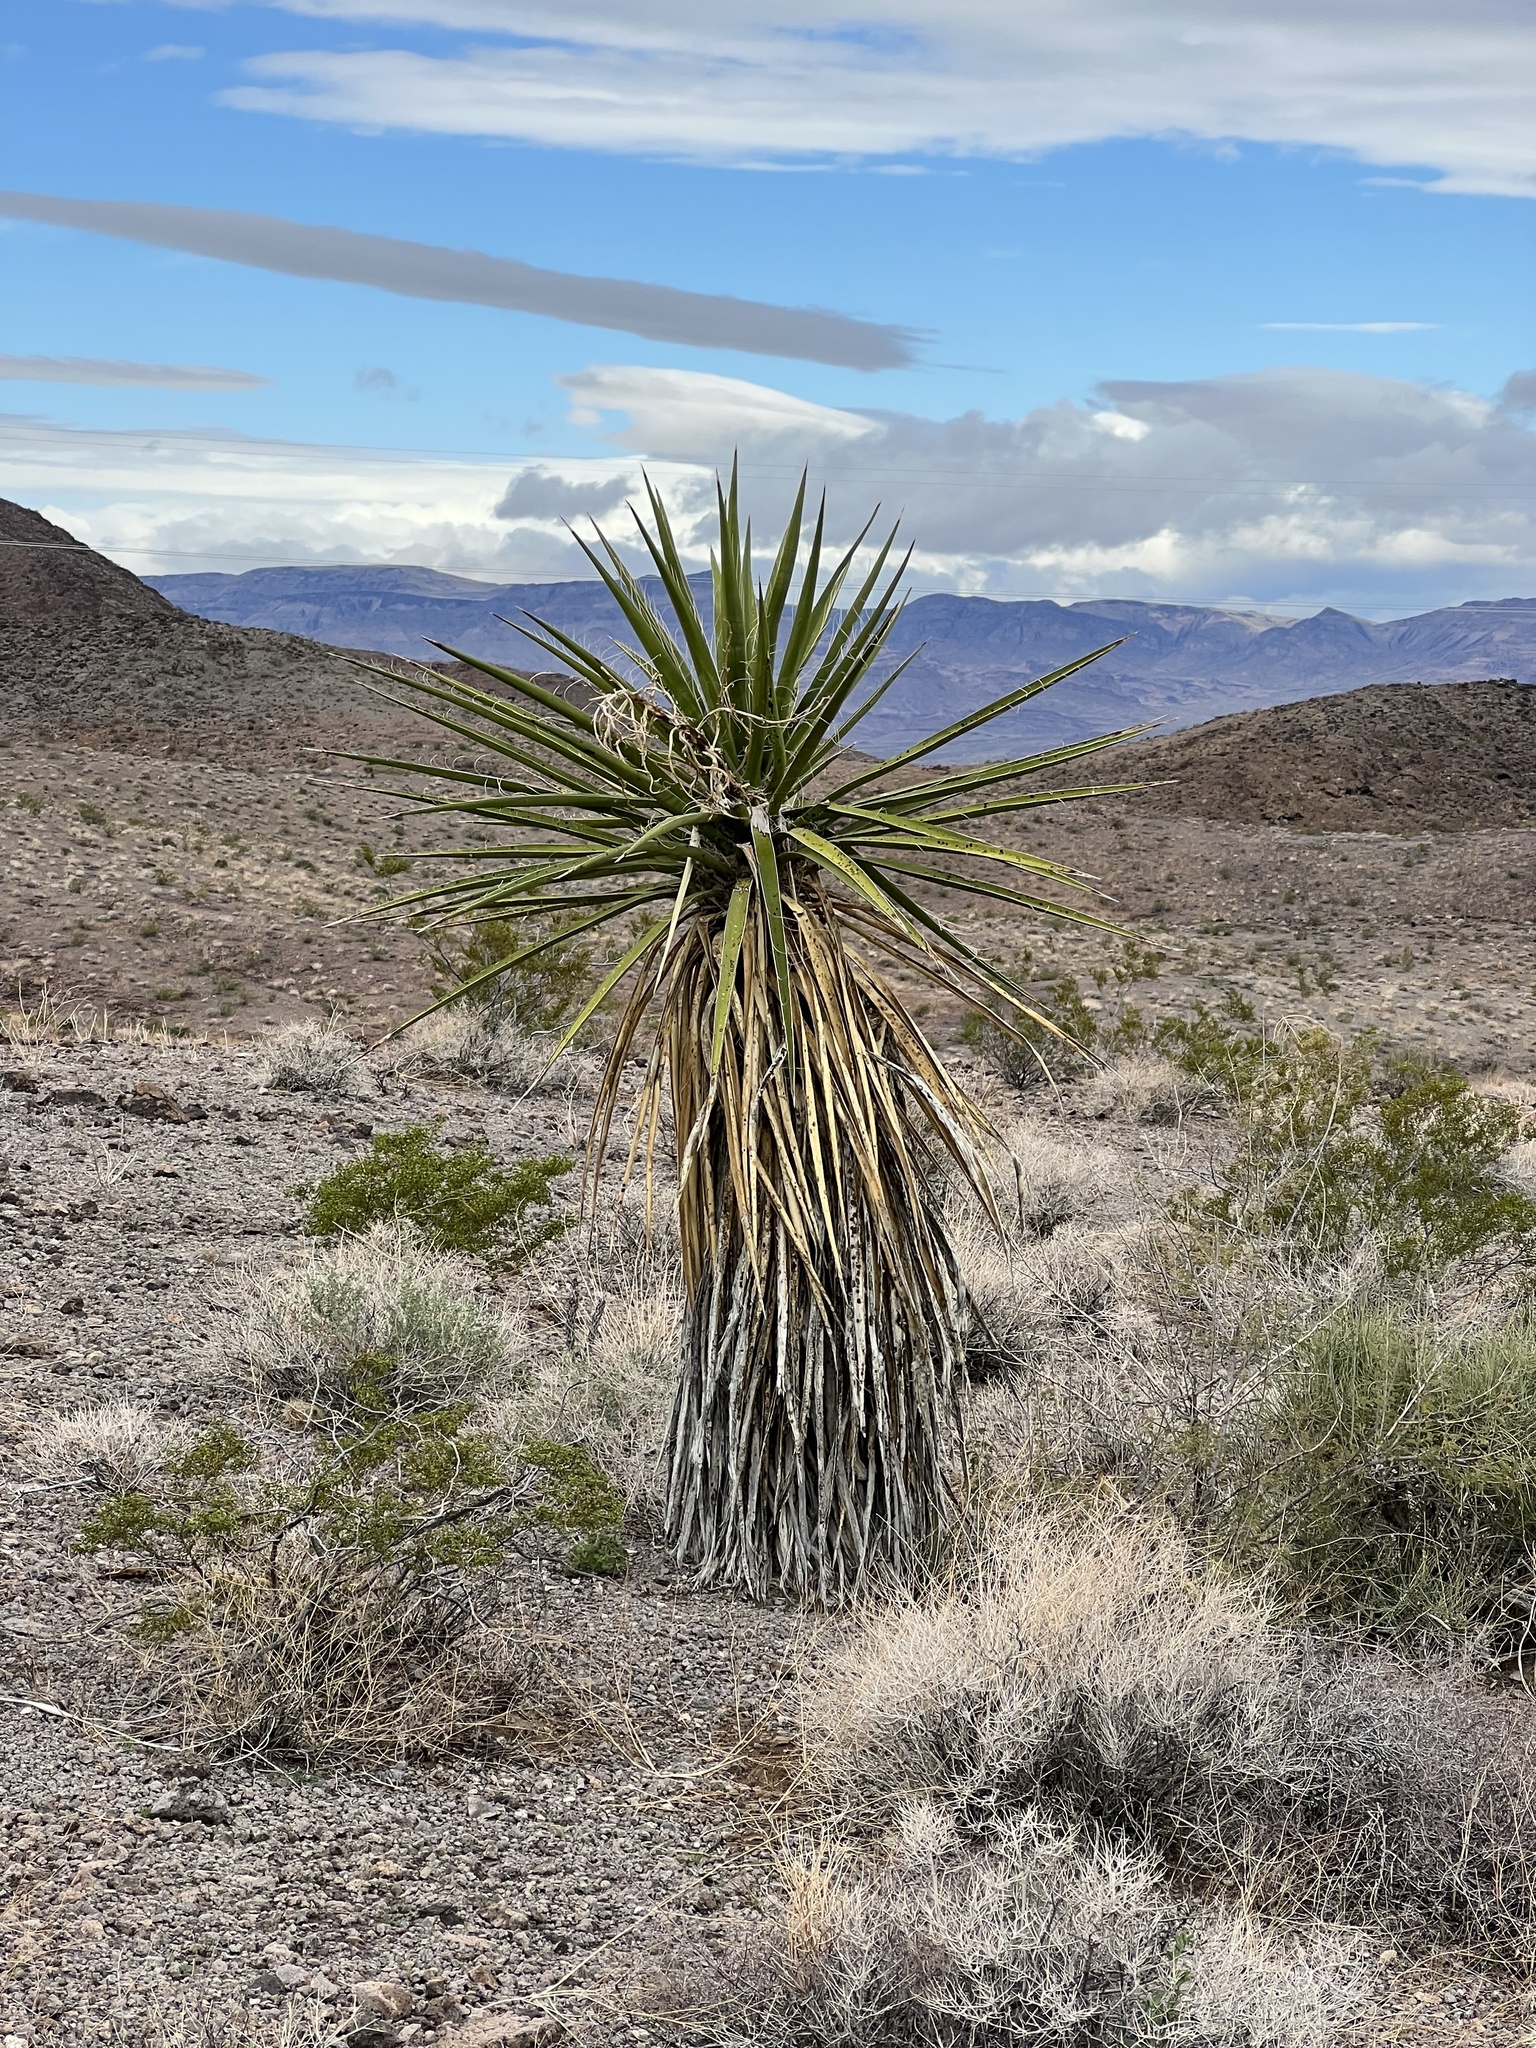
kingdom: Plantae
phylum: Tracheophyta
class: Liliopsida
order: Asparagales
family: Asparagaceae
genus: Yucca
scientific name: Yucca schidigera
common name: Mojave yucca
